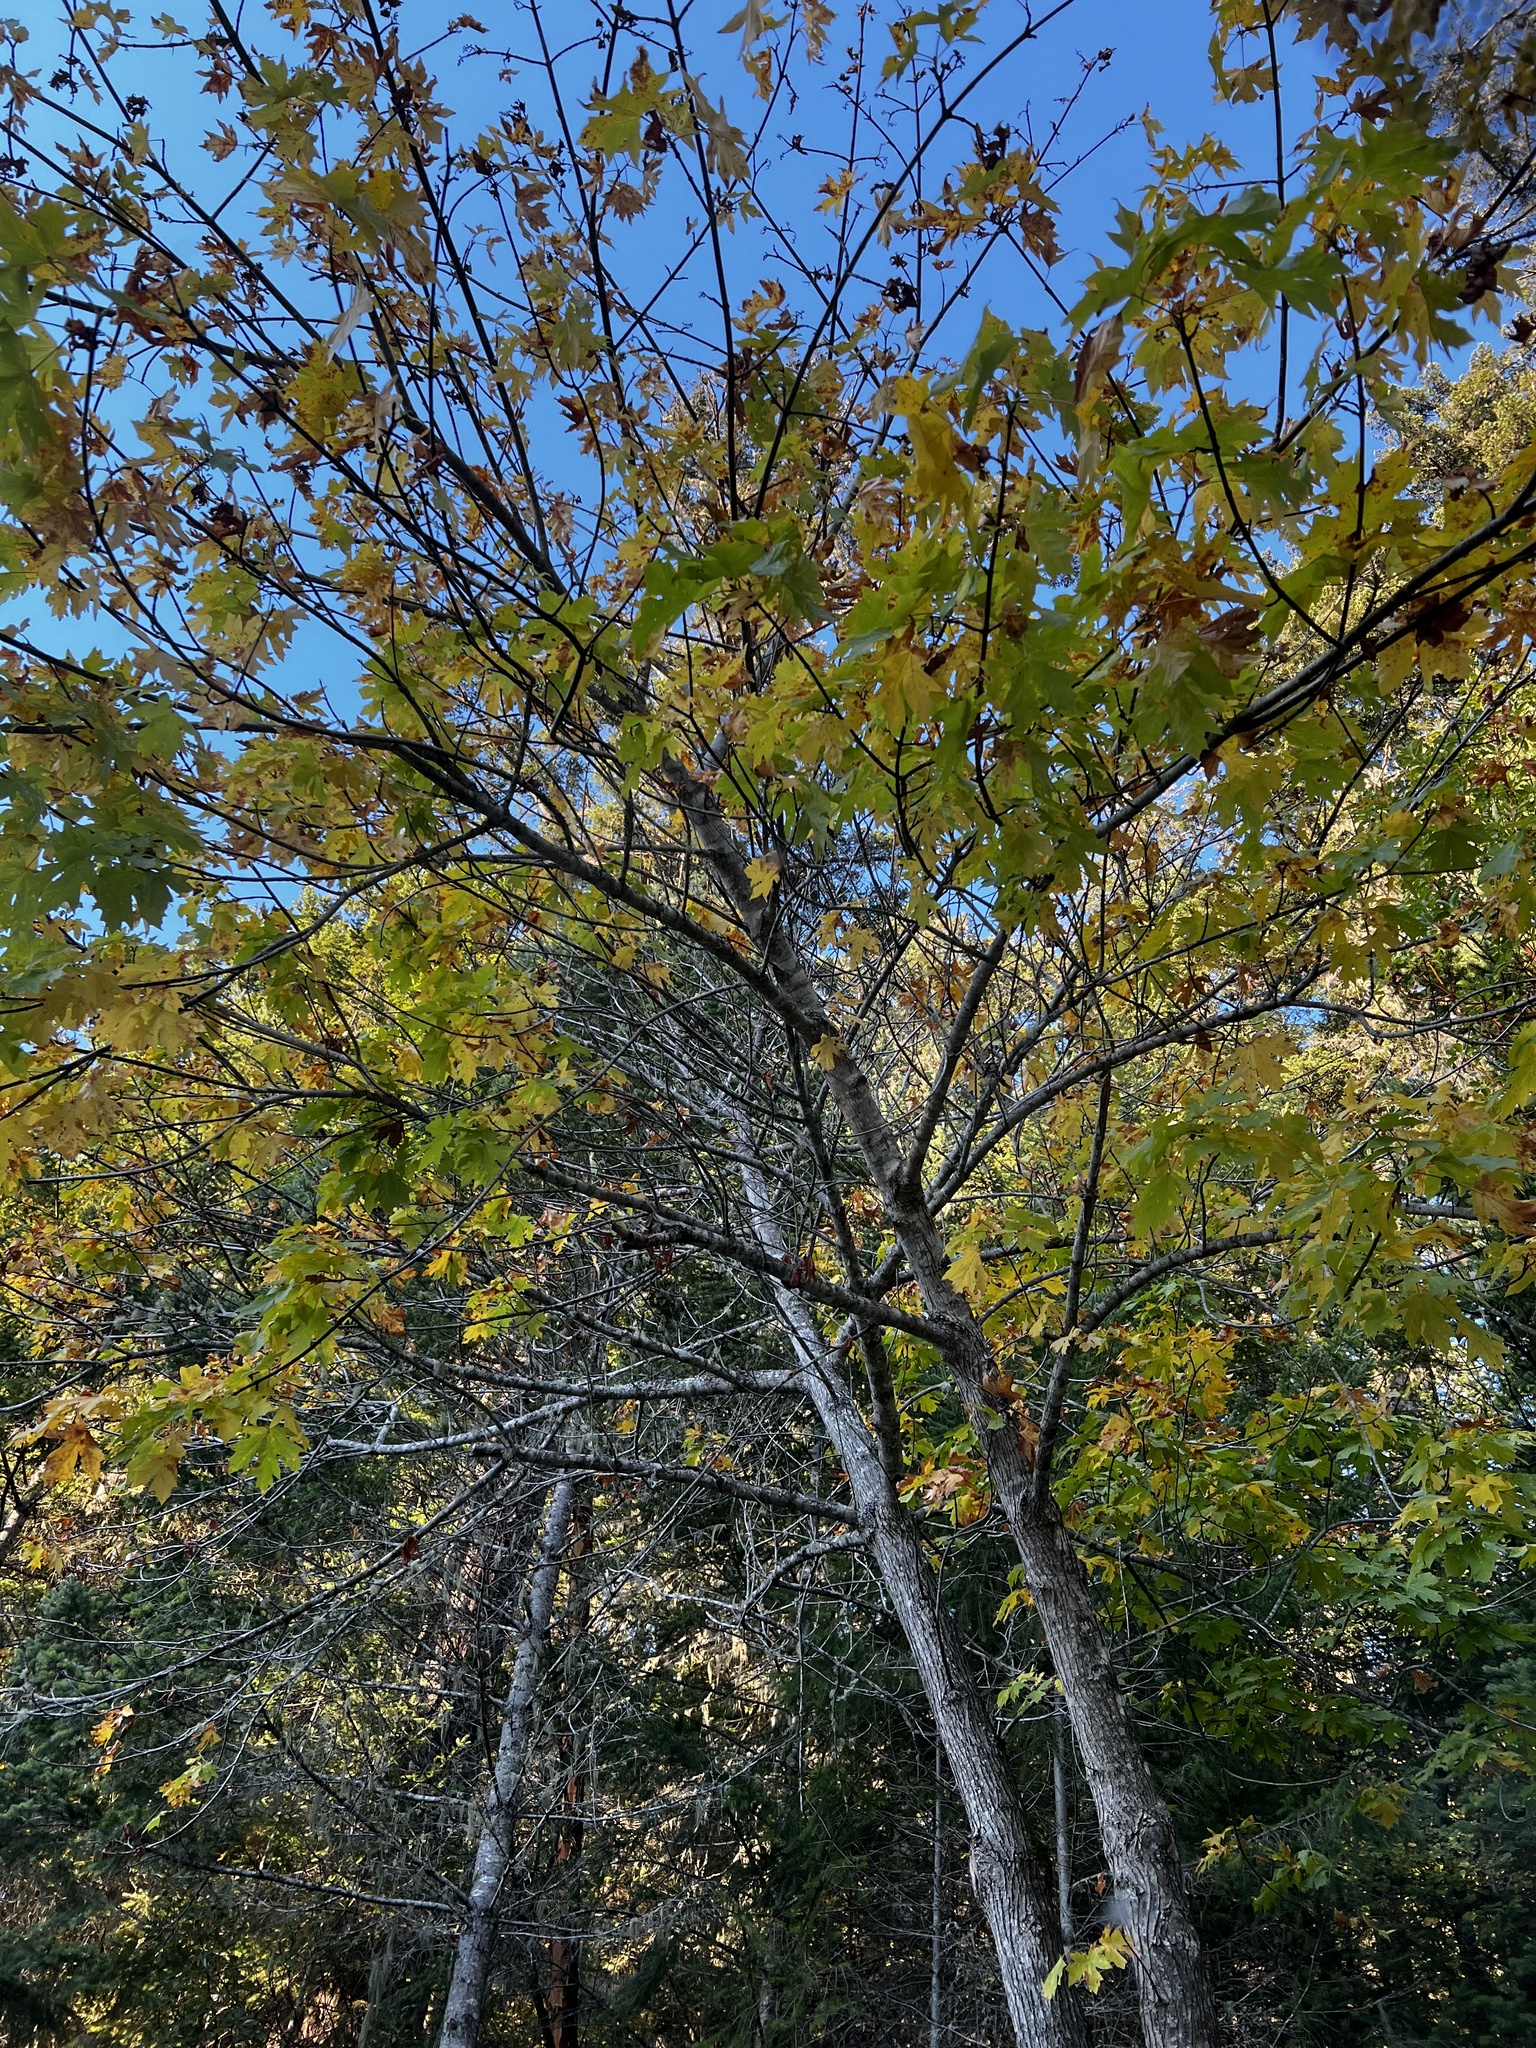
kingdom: Plantae
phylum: Tracheophyta
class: Magnoliopsida
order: Sapindales
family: Sapindaceae
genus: Acer
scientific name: Acer macrophyllum
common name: Oregon maple
